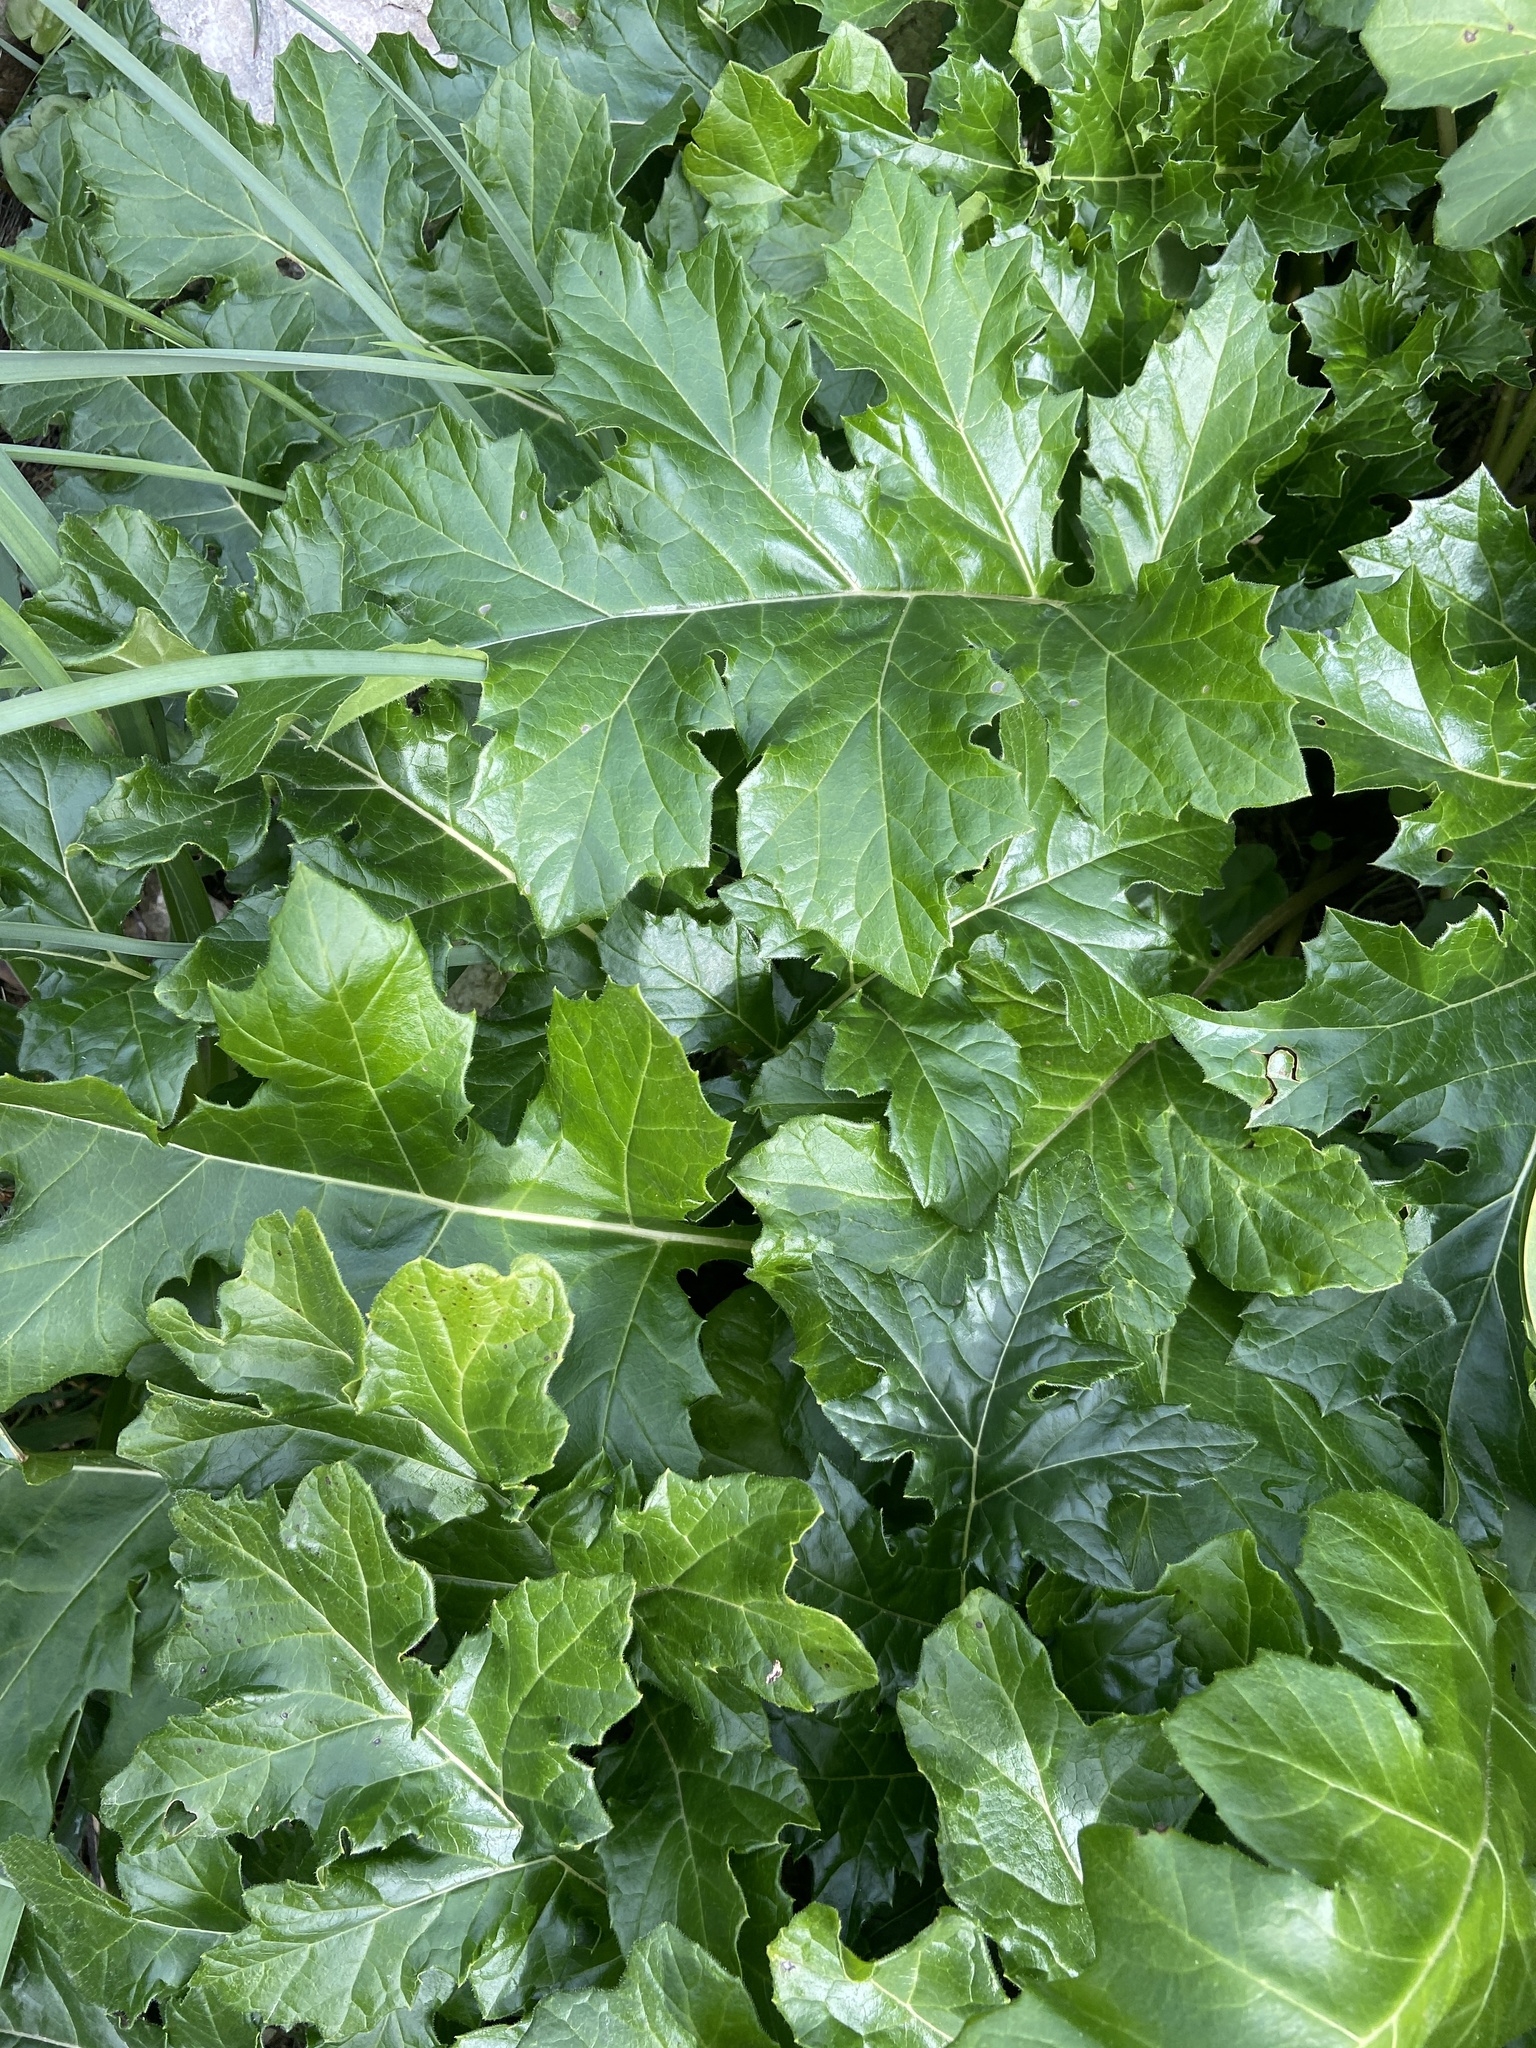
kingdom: Plantae
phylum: Tracheophyta
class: Magnoliopsida
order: Lamiales
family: Acanthaceae
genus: Acanthus
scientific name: Acanthus mollis
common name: Bear's-breech
